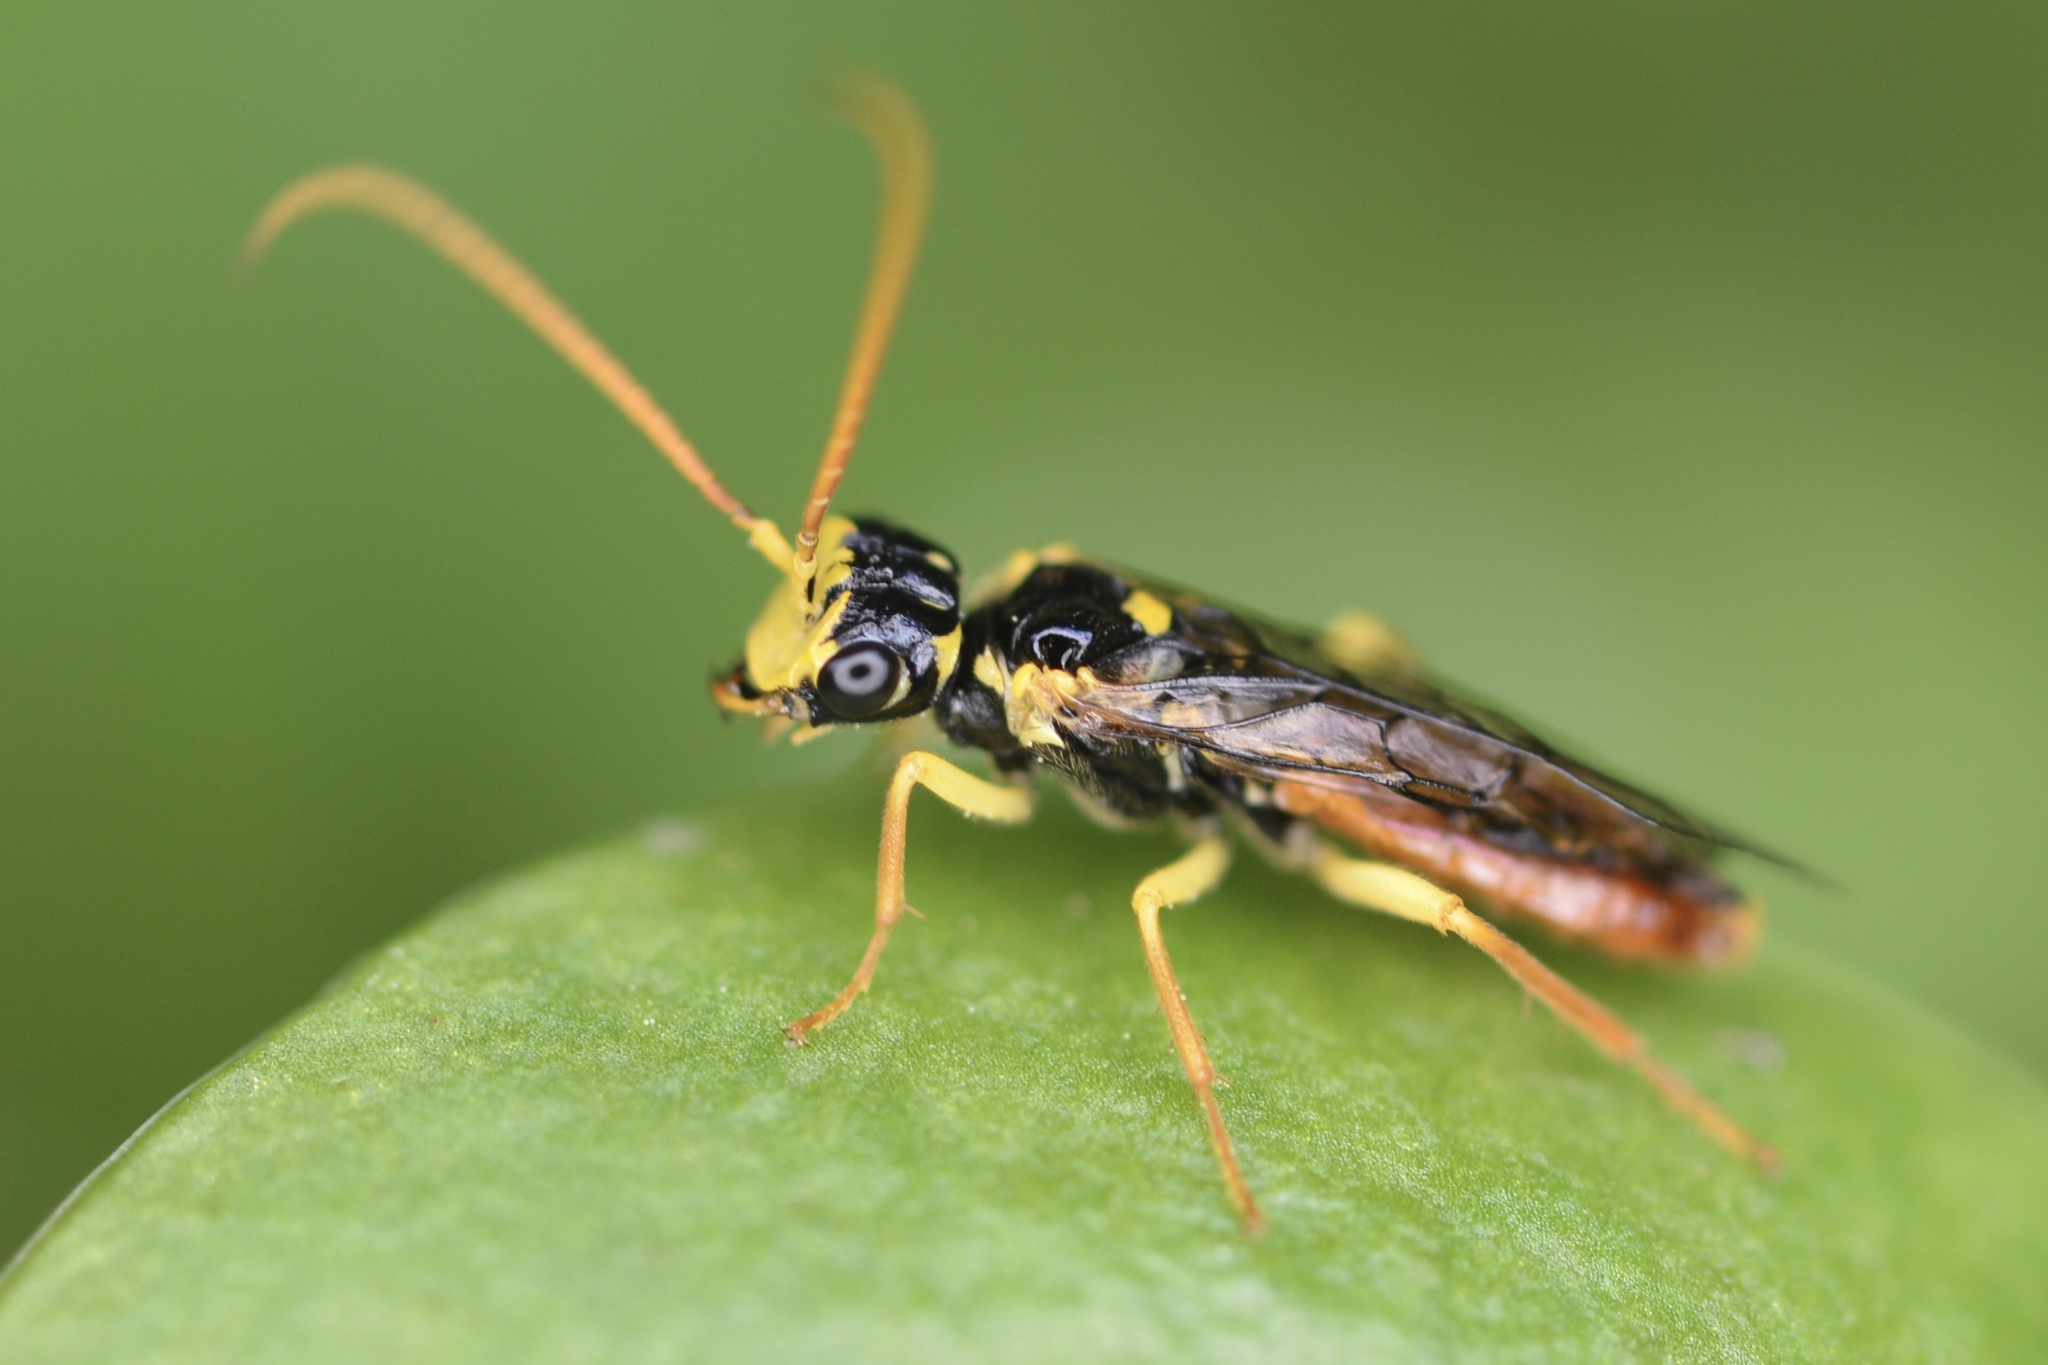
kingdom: Animalia
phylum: Arthropoda
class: Insecta
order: Hymenoptera
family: Pamphiliidae
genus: Onycholyda
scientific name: Onycholyda sitkensis
